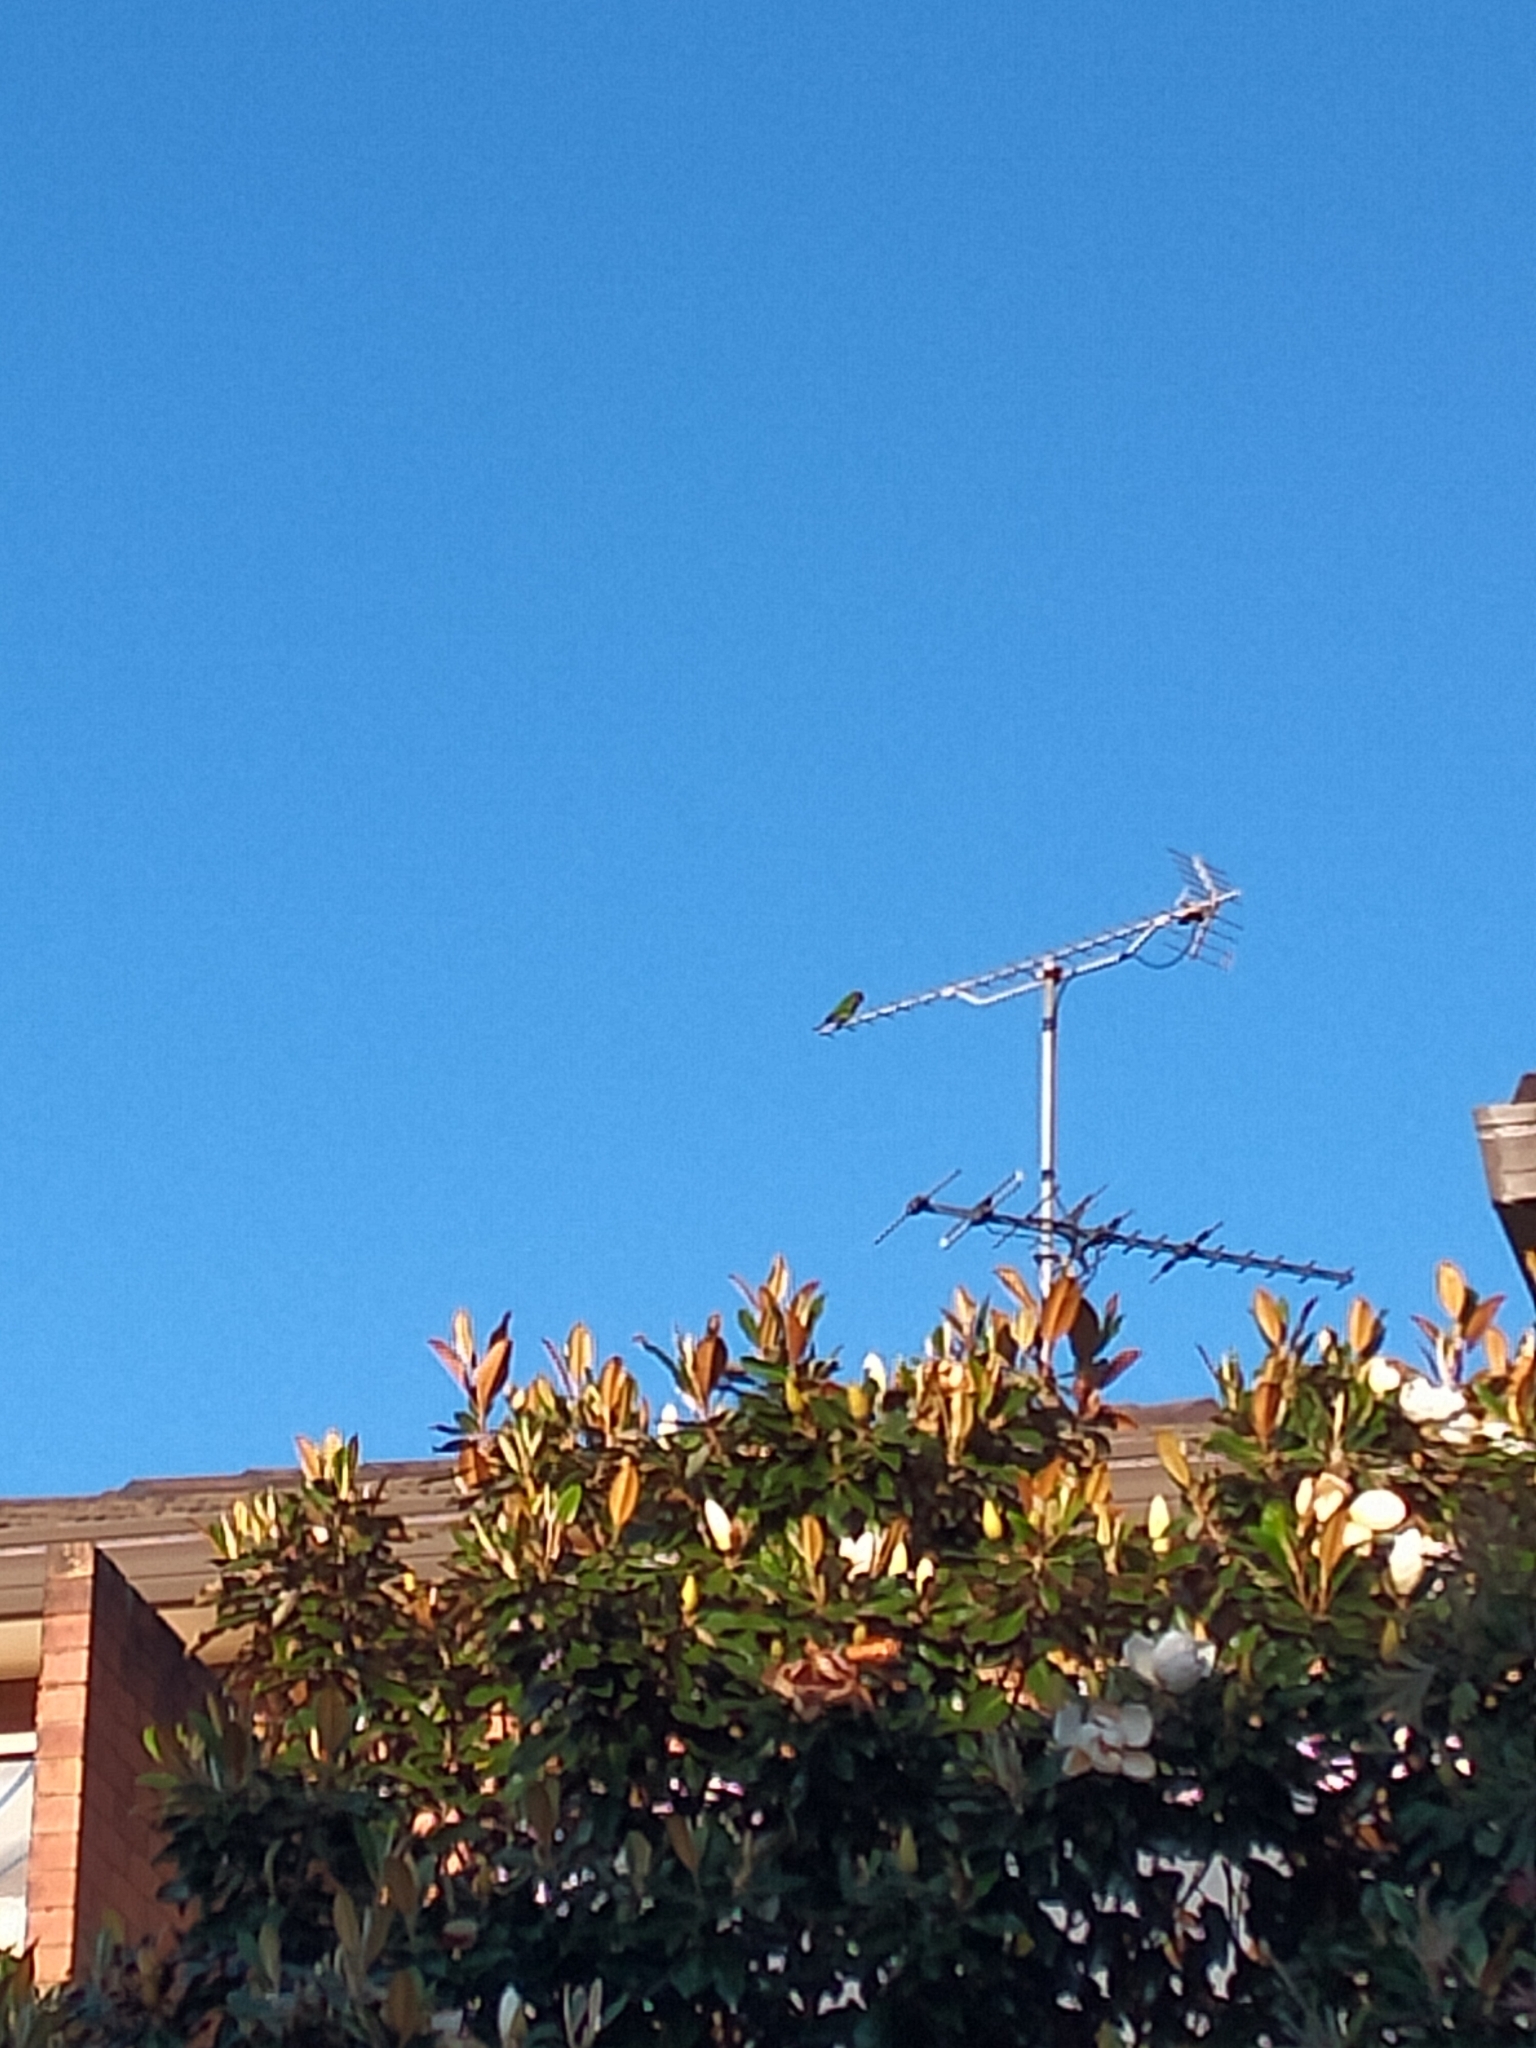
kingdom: Animalia
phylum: Chordata
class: Aves
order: Psittaciformes
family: Psittacidae
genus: Trichoglossus
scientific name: Trichoglossus haematodus
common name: Coconut lorikeet
